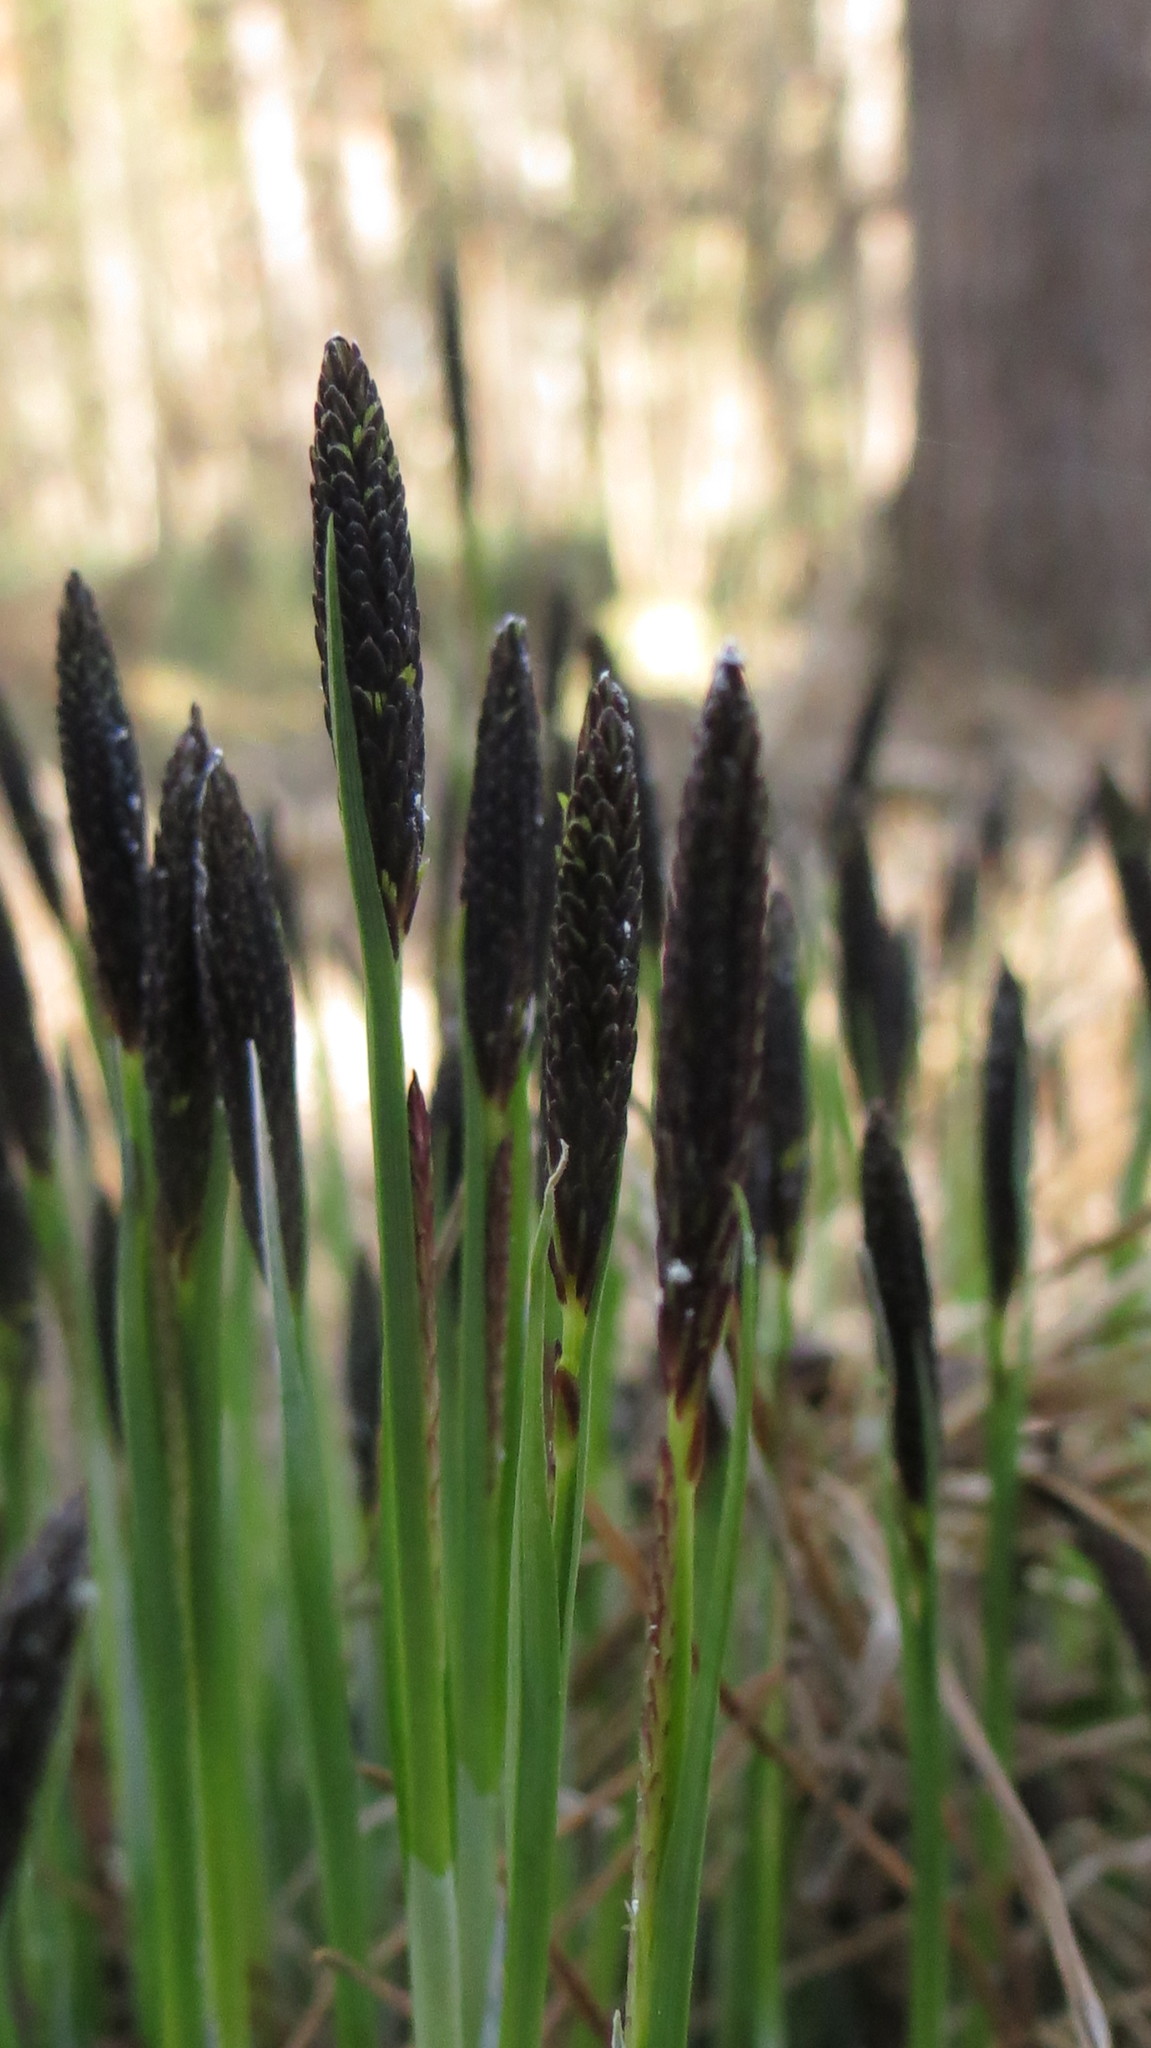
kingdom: Plantae
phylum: Tracheophyta
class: Liliopsida
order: Poales
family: Cyperaceae
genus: Carex
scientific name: Carex cespitosa
